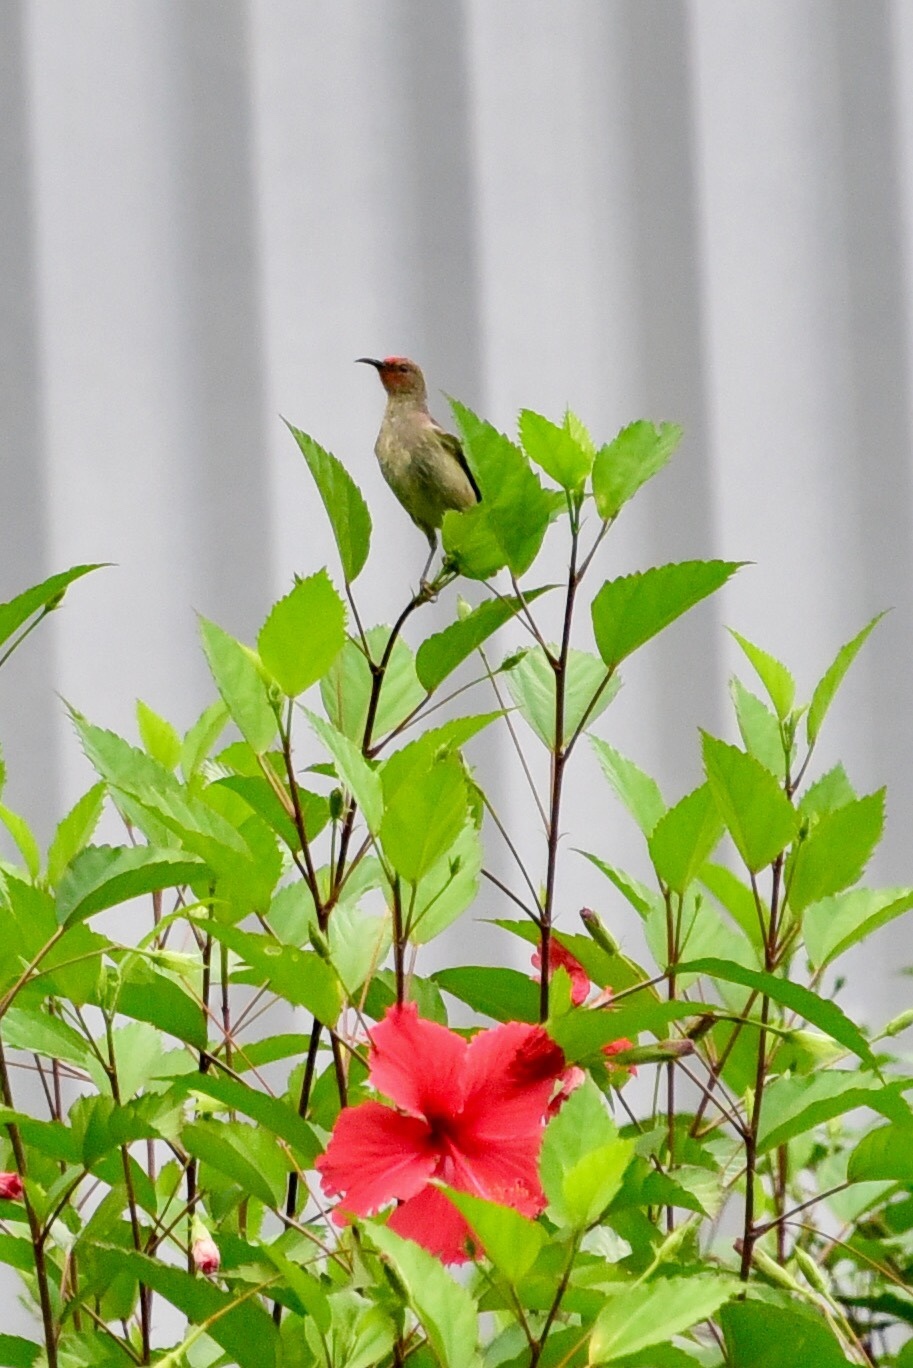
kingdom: Animalia
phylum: Chordata
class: Aves
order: Passeriformes
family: Meliphagidae
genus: Myzomela
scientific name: Myzomela cardinalis
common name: Cardinal myzomela
